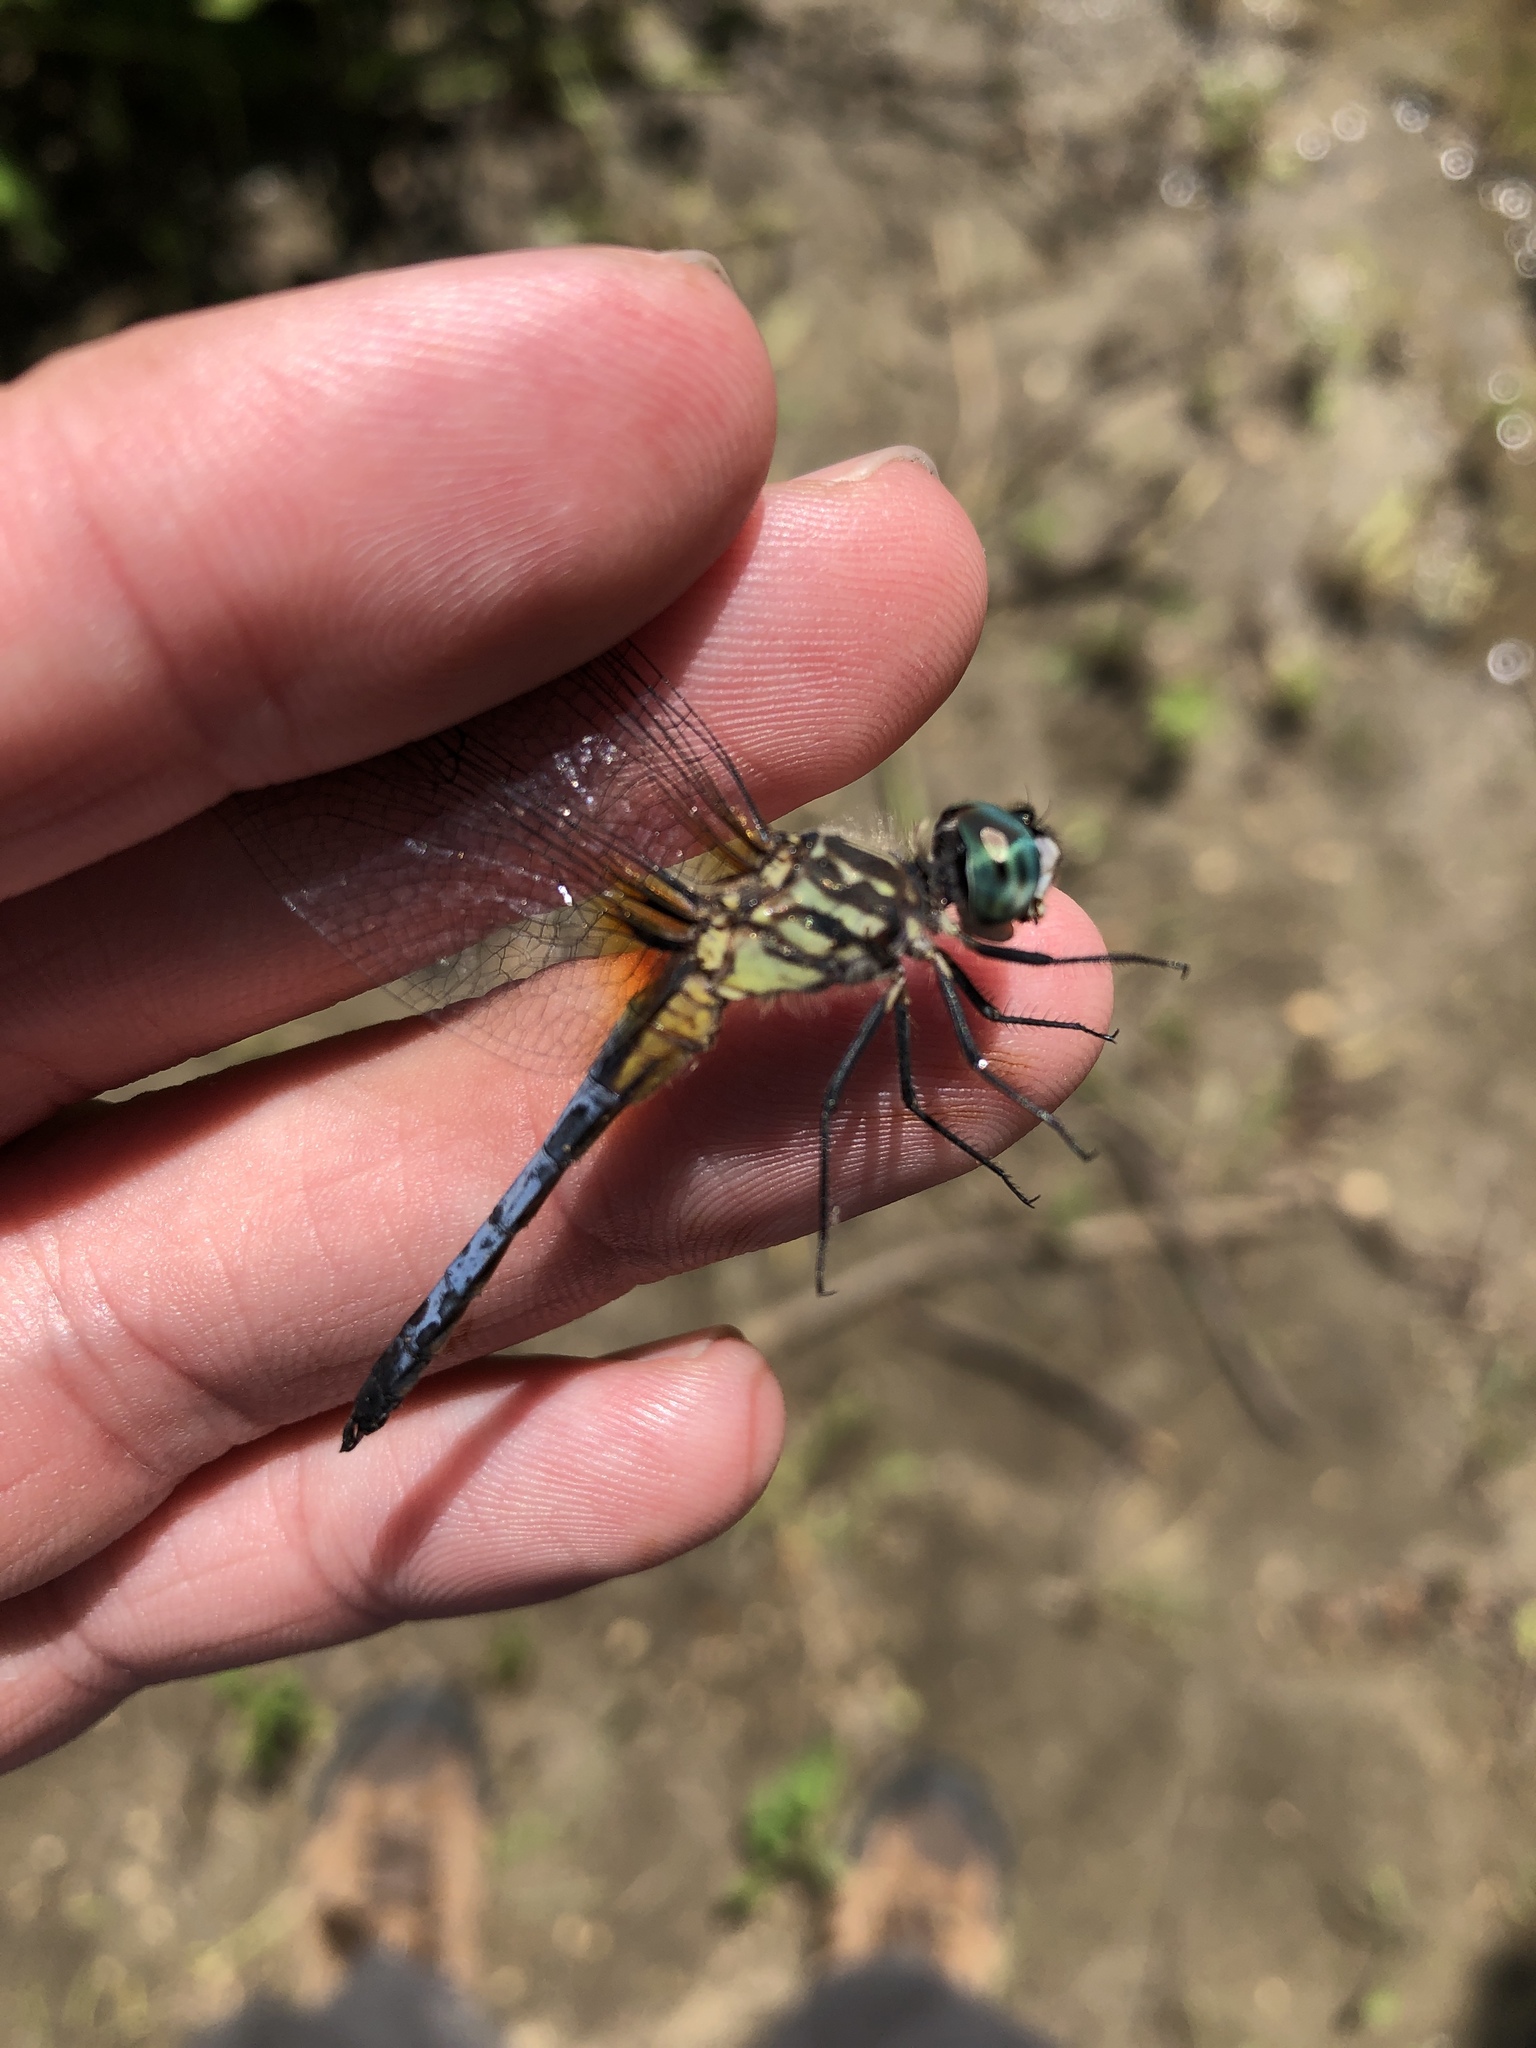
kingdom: Animalia
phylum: Arthropoda
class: Insecta
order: Odonata
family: Libellulidae
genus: Pachydiplax
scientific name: Pachydiplax longipennis
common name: Blue dasher
